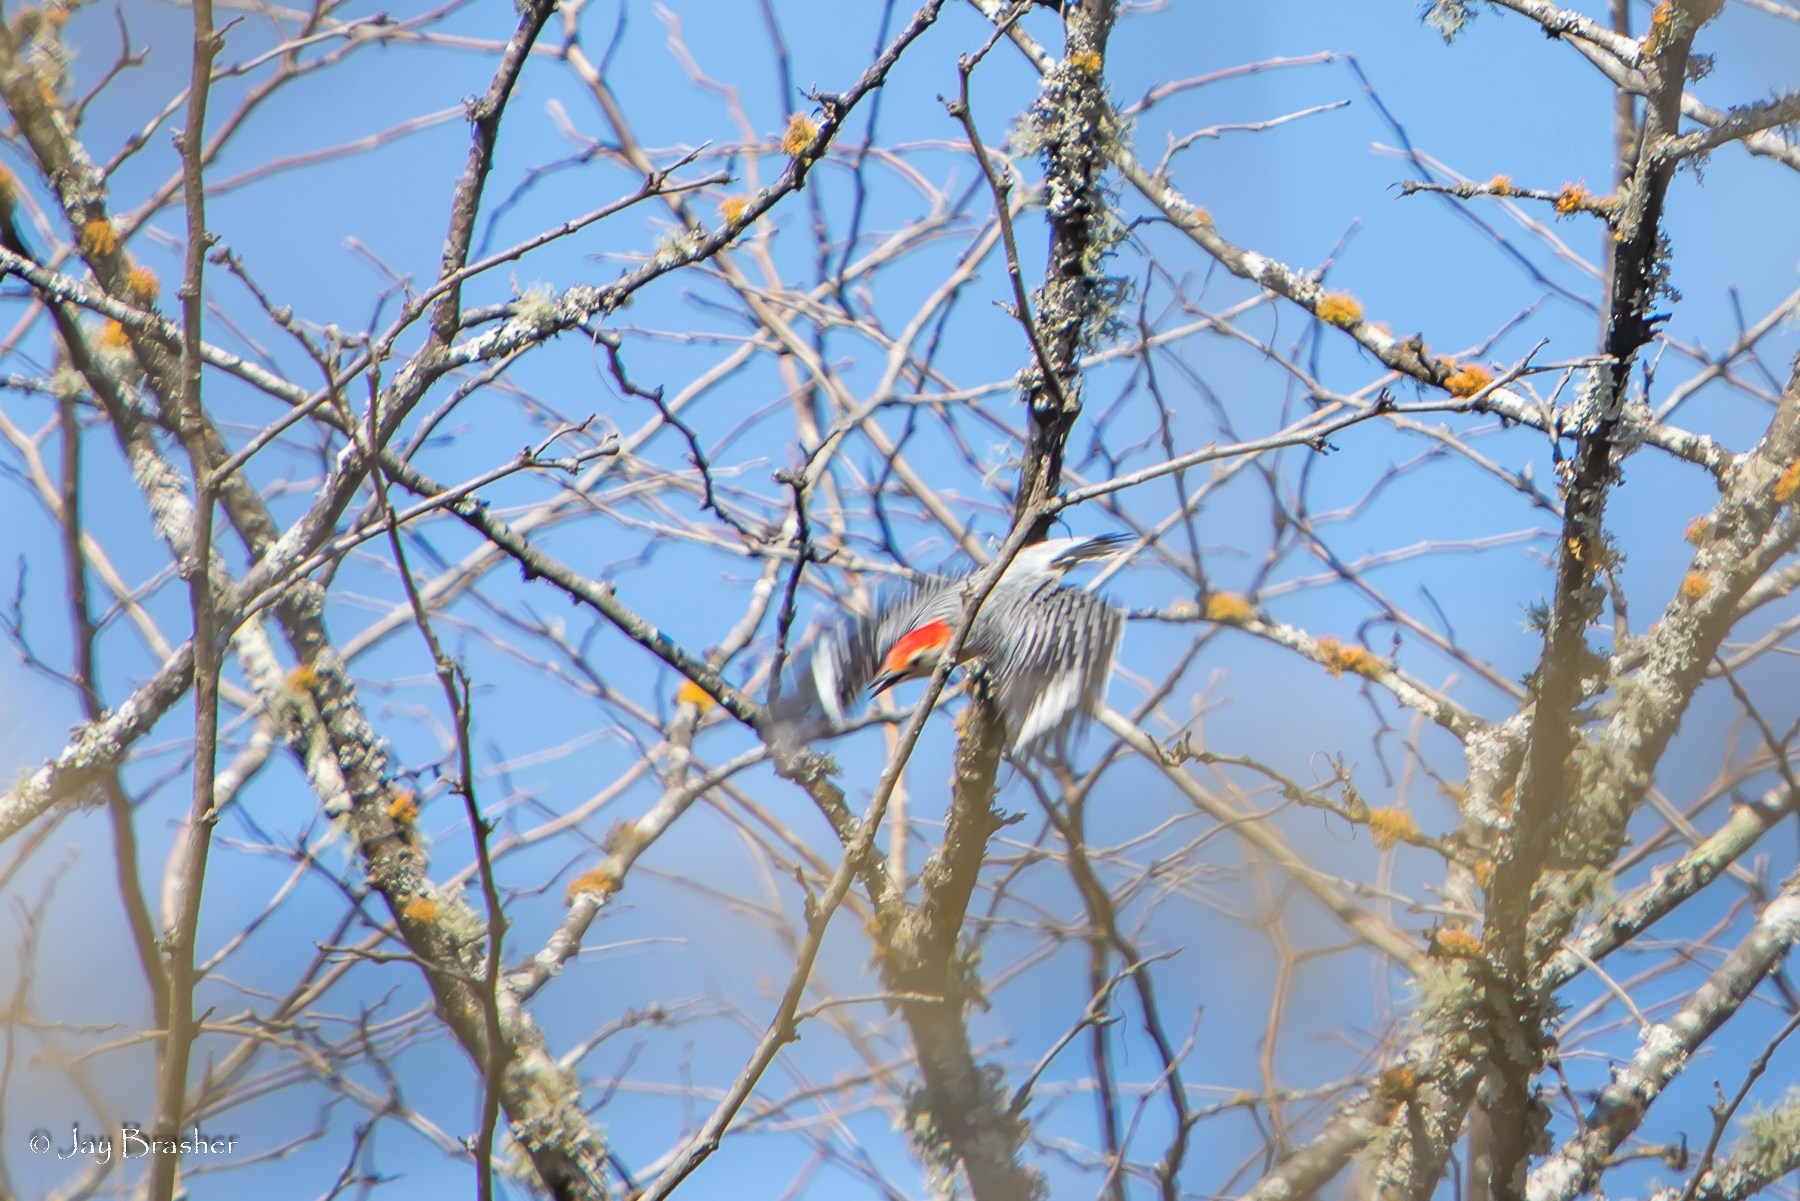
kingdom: Animalia
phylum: Chordata
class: Aves
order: Piciformes
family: Picidae
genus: Melanerpes
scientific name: Melanerpes carolinus
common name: Red-bellied woodpecker
